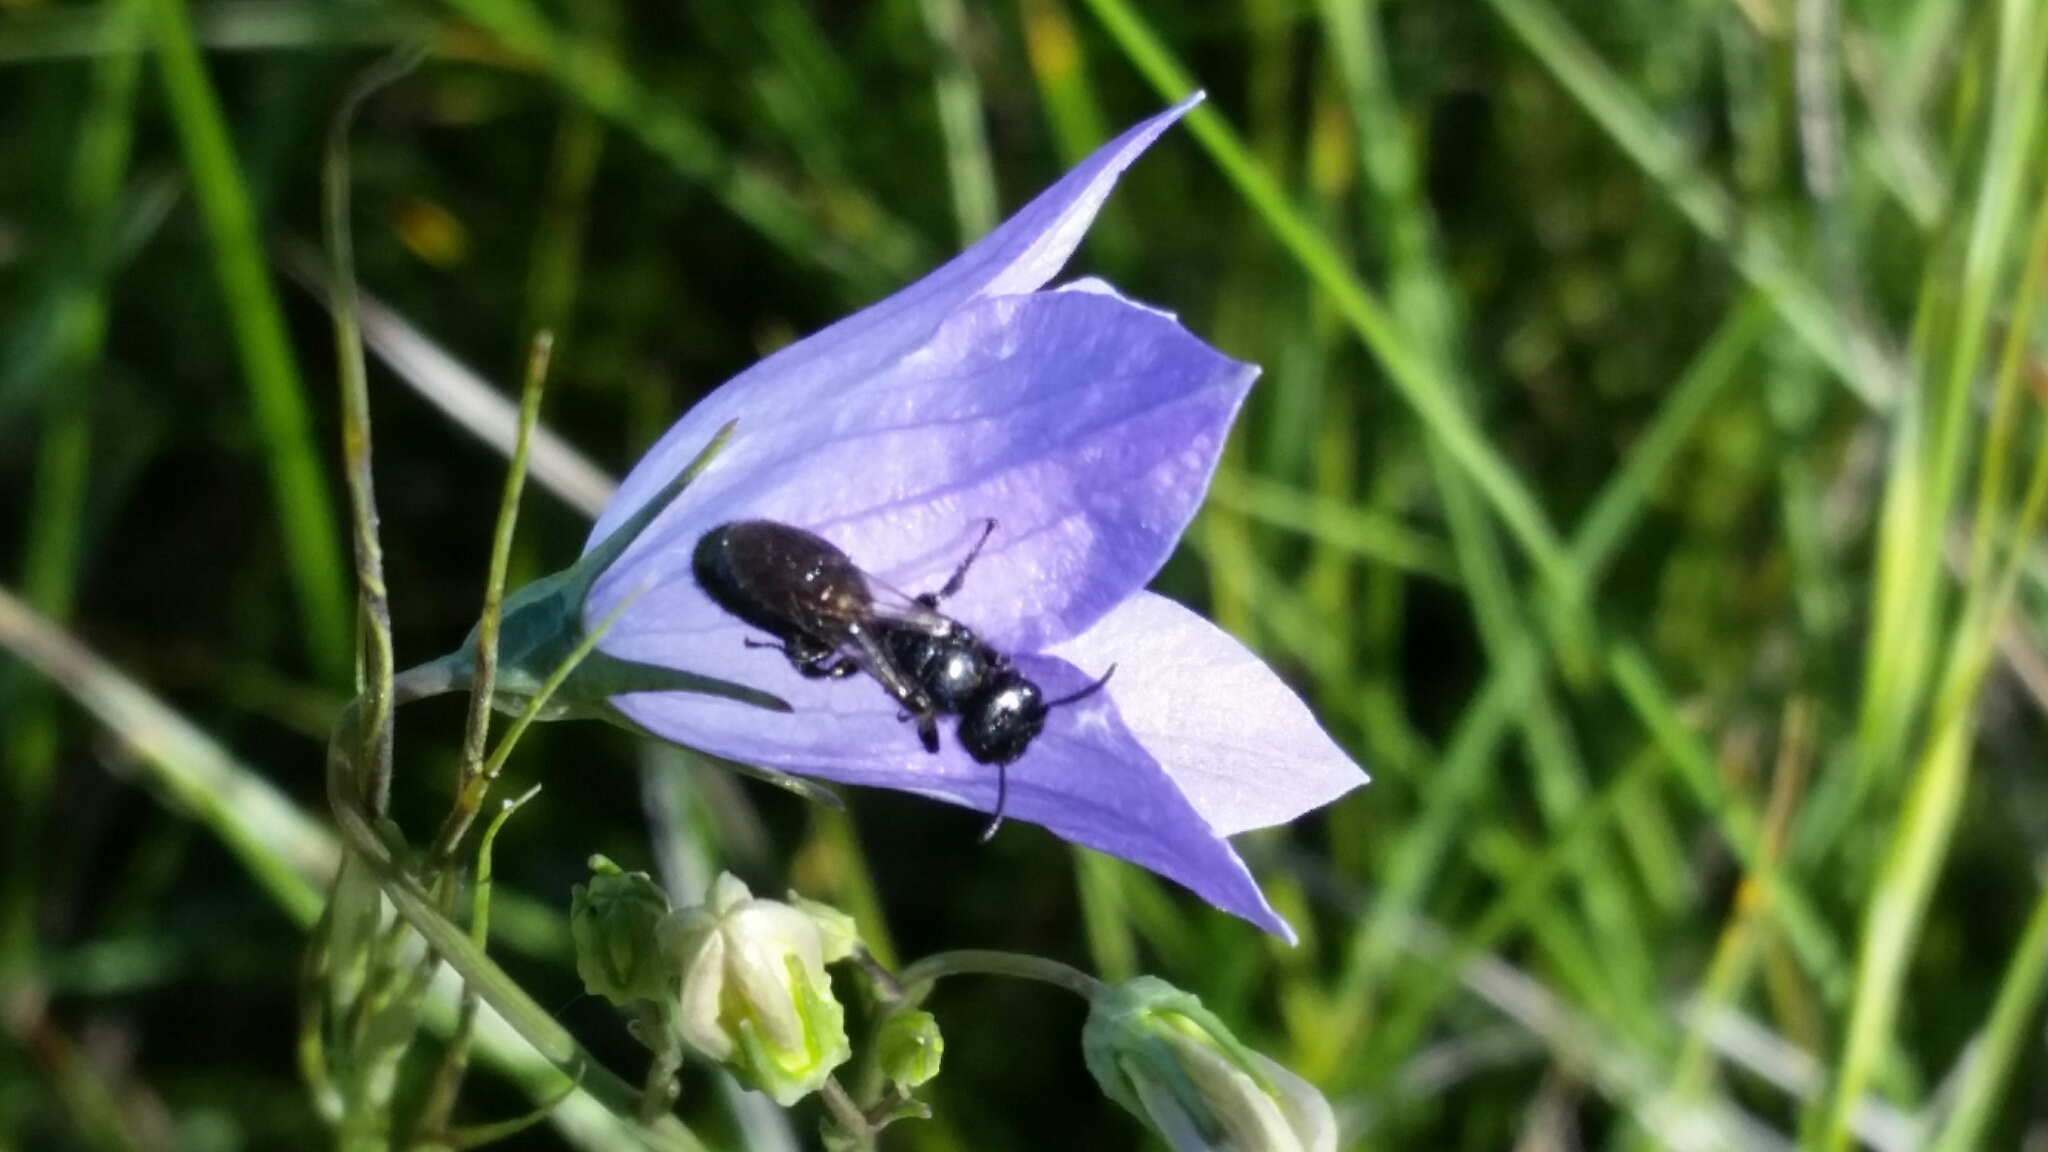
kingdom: Plantae
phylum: Tracheophyta
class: Magnoliopsida
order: Asterales
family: Campanulaceae
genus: Campanula
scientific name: Campanula petiolata
